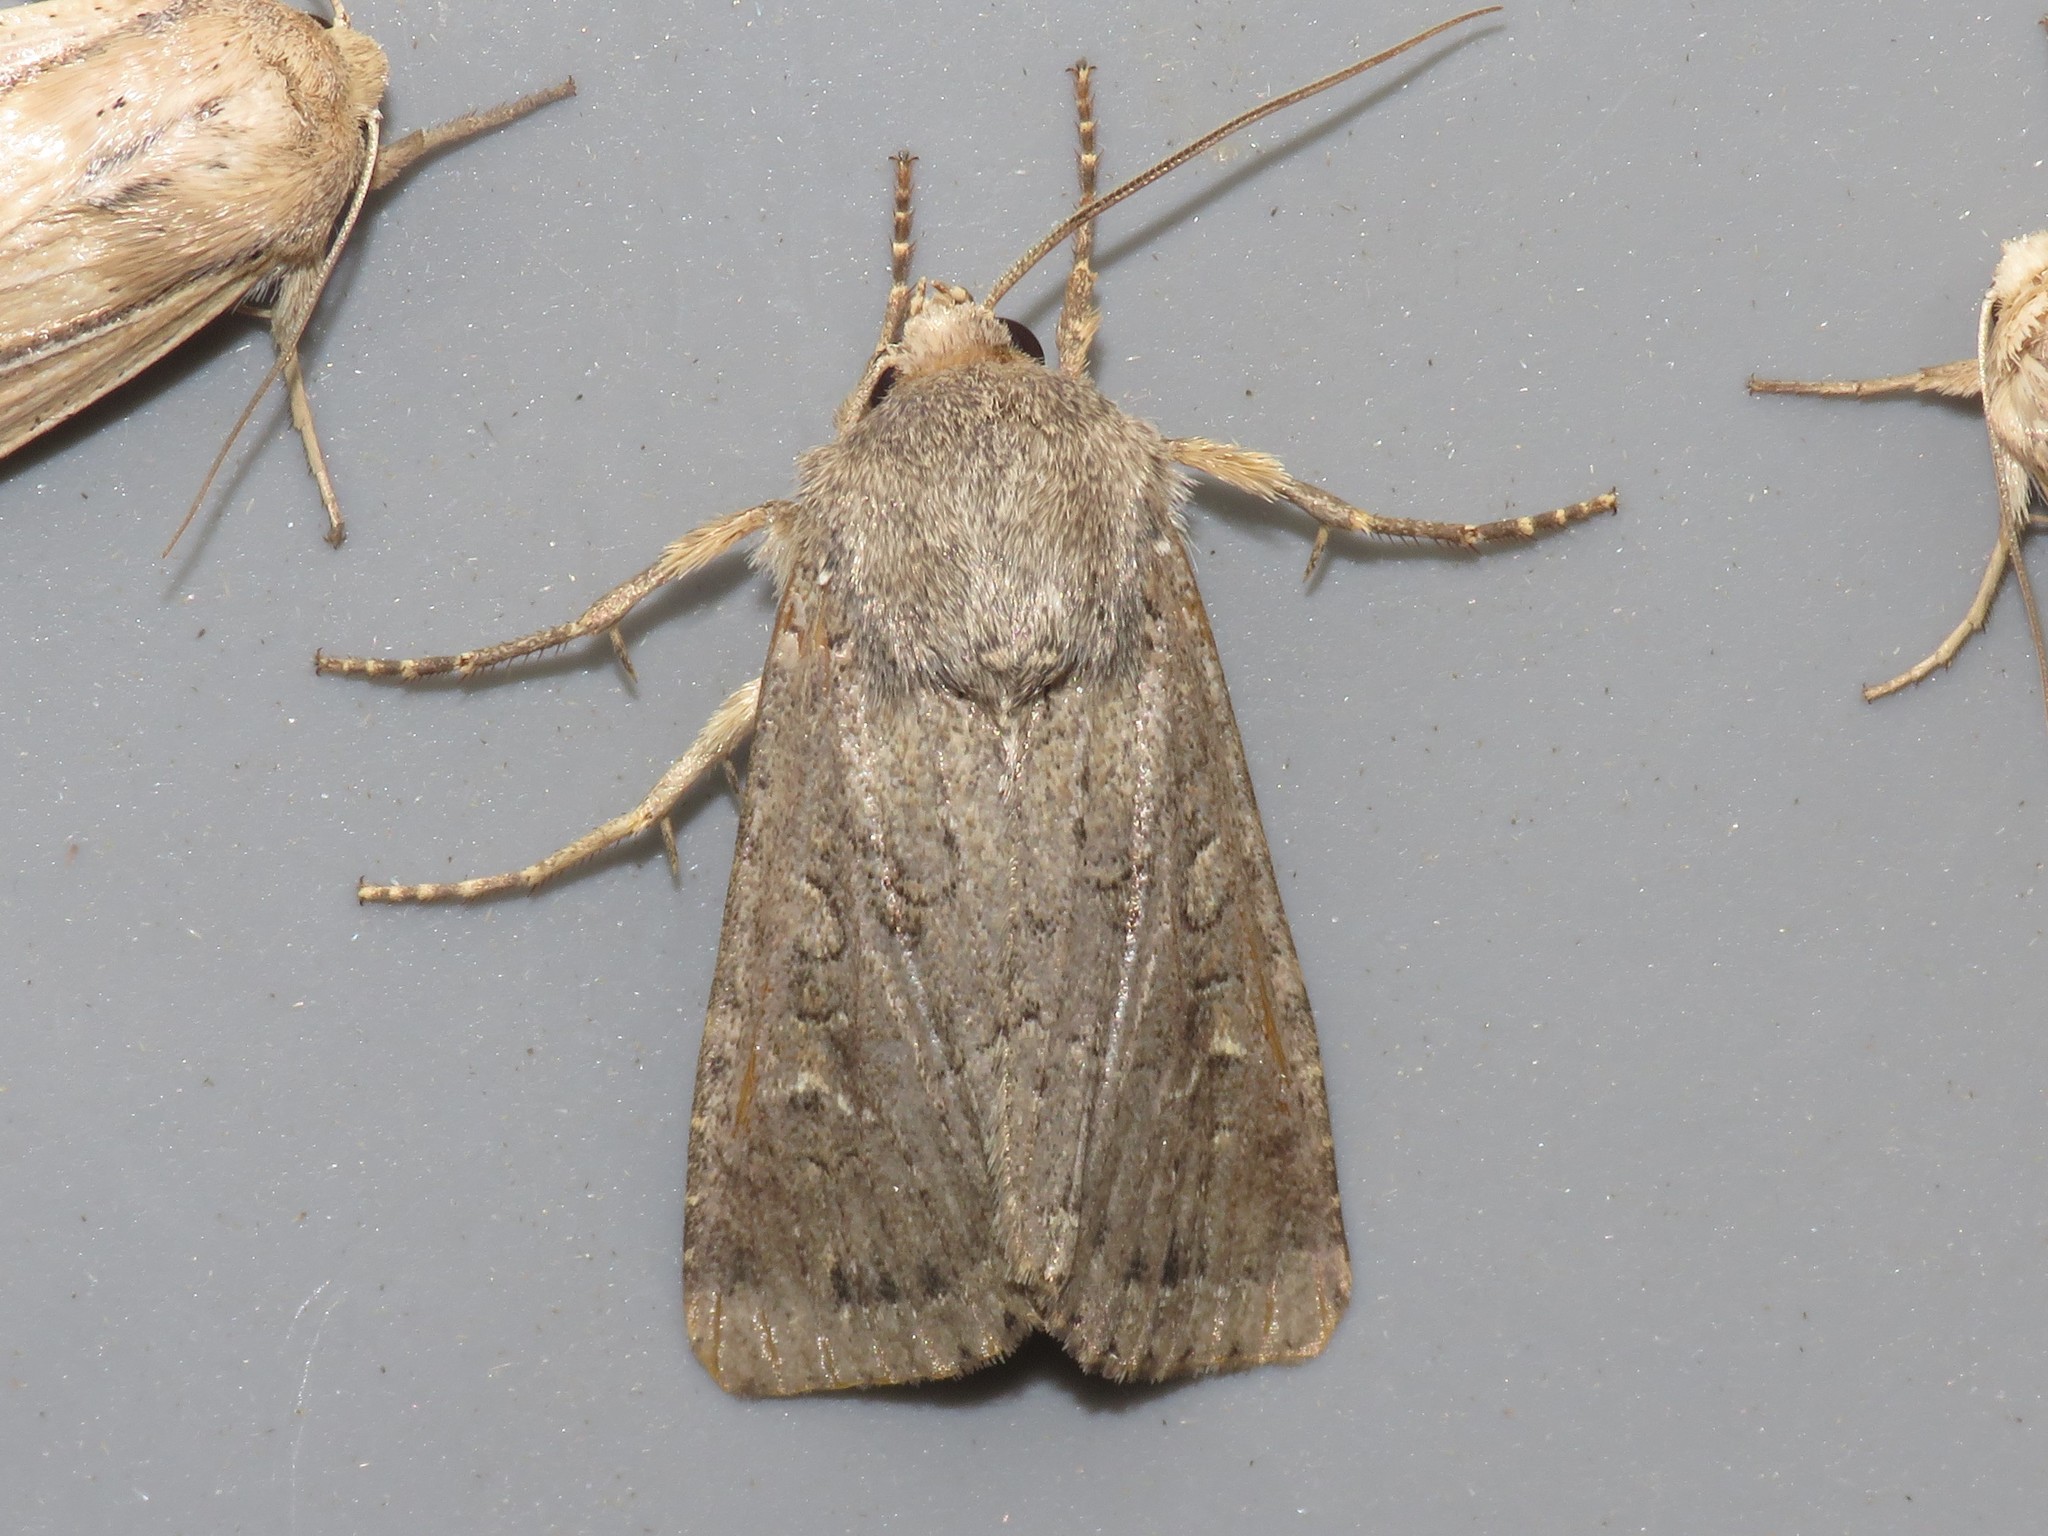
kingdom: Animalia
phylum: Arthropoda
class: Insecta
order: Lepidoptera
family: Noctuidae
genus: Apamea
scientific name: Apamea devastator
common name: Glassy cutworm
